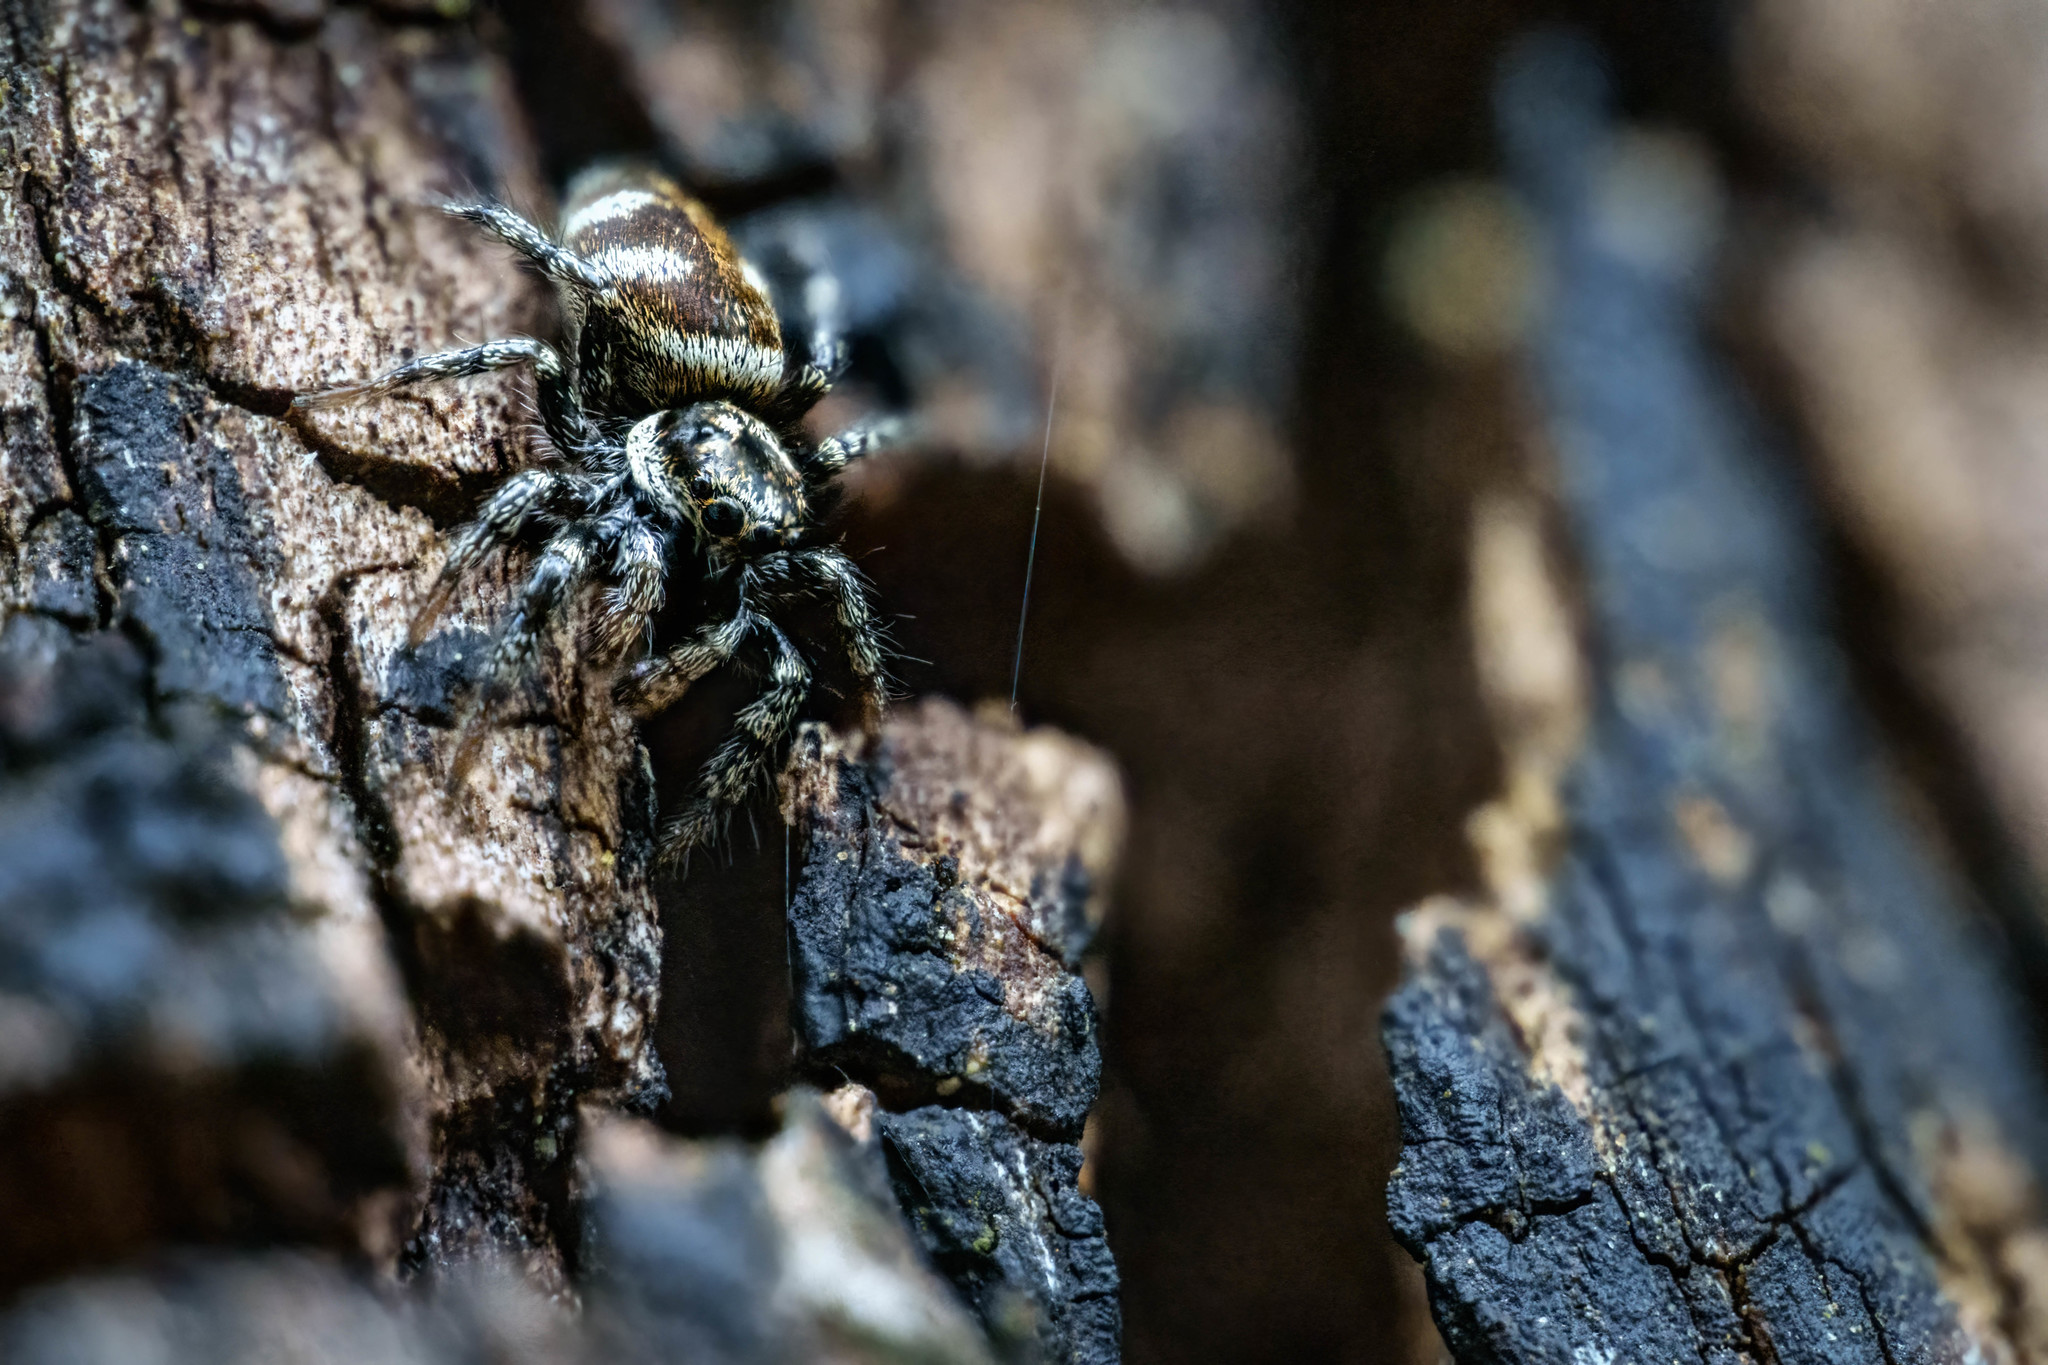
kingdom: Animalia
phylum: Arthropoda
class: Arachnida
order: Araneae
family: Salticidae
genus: Salticus
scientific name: Salticus scenicus
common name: Zebra jumper
